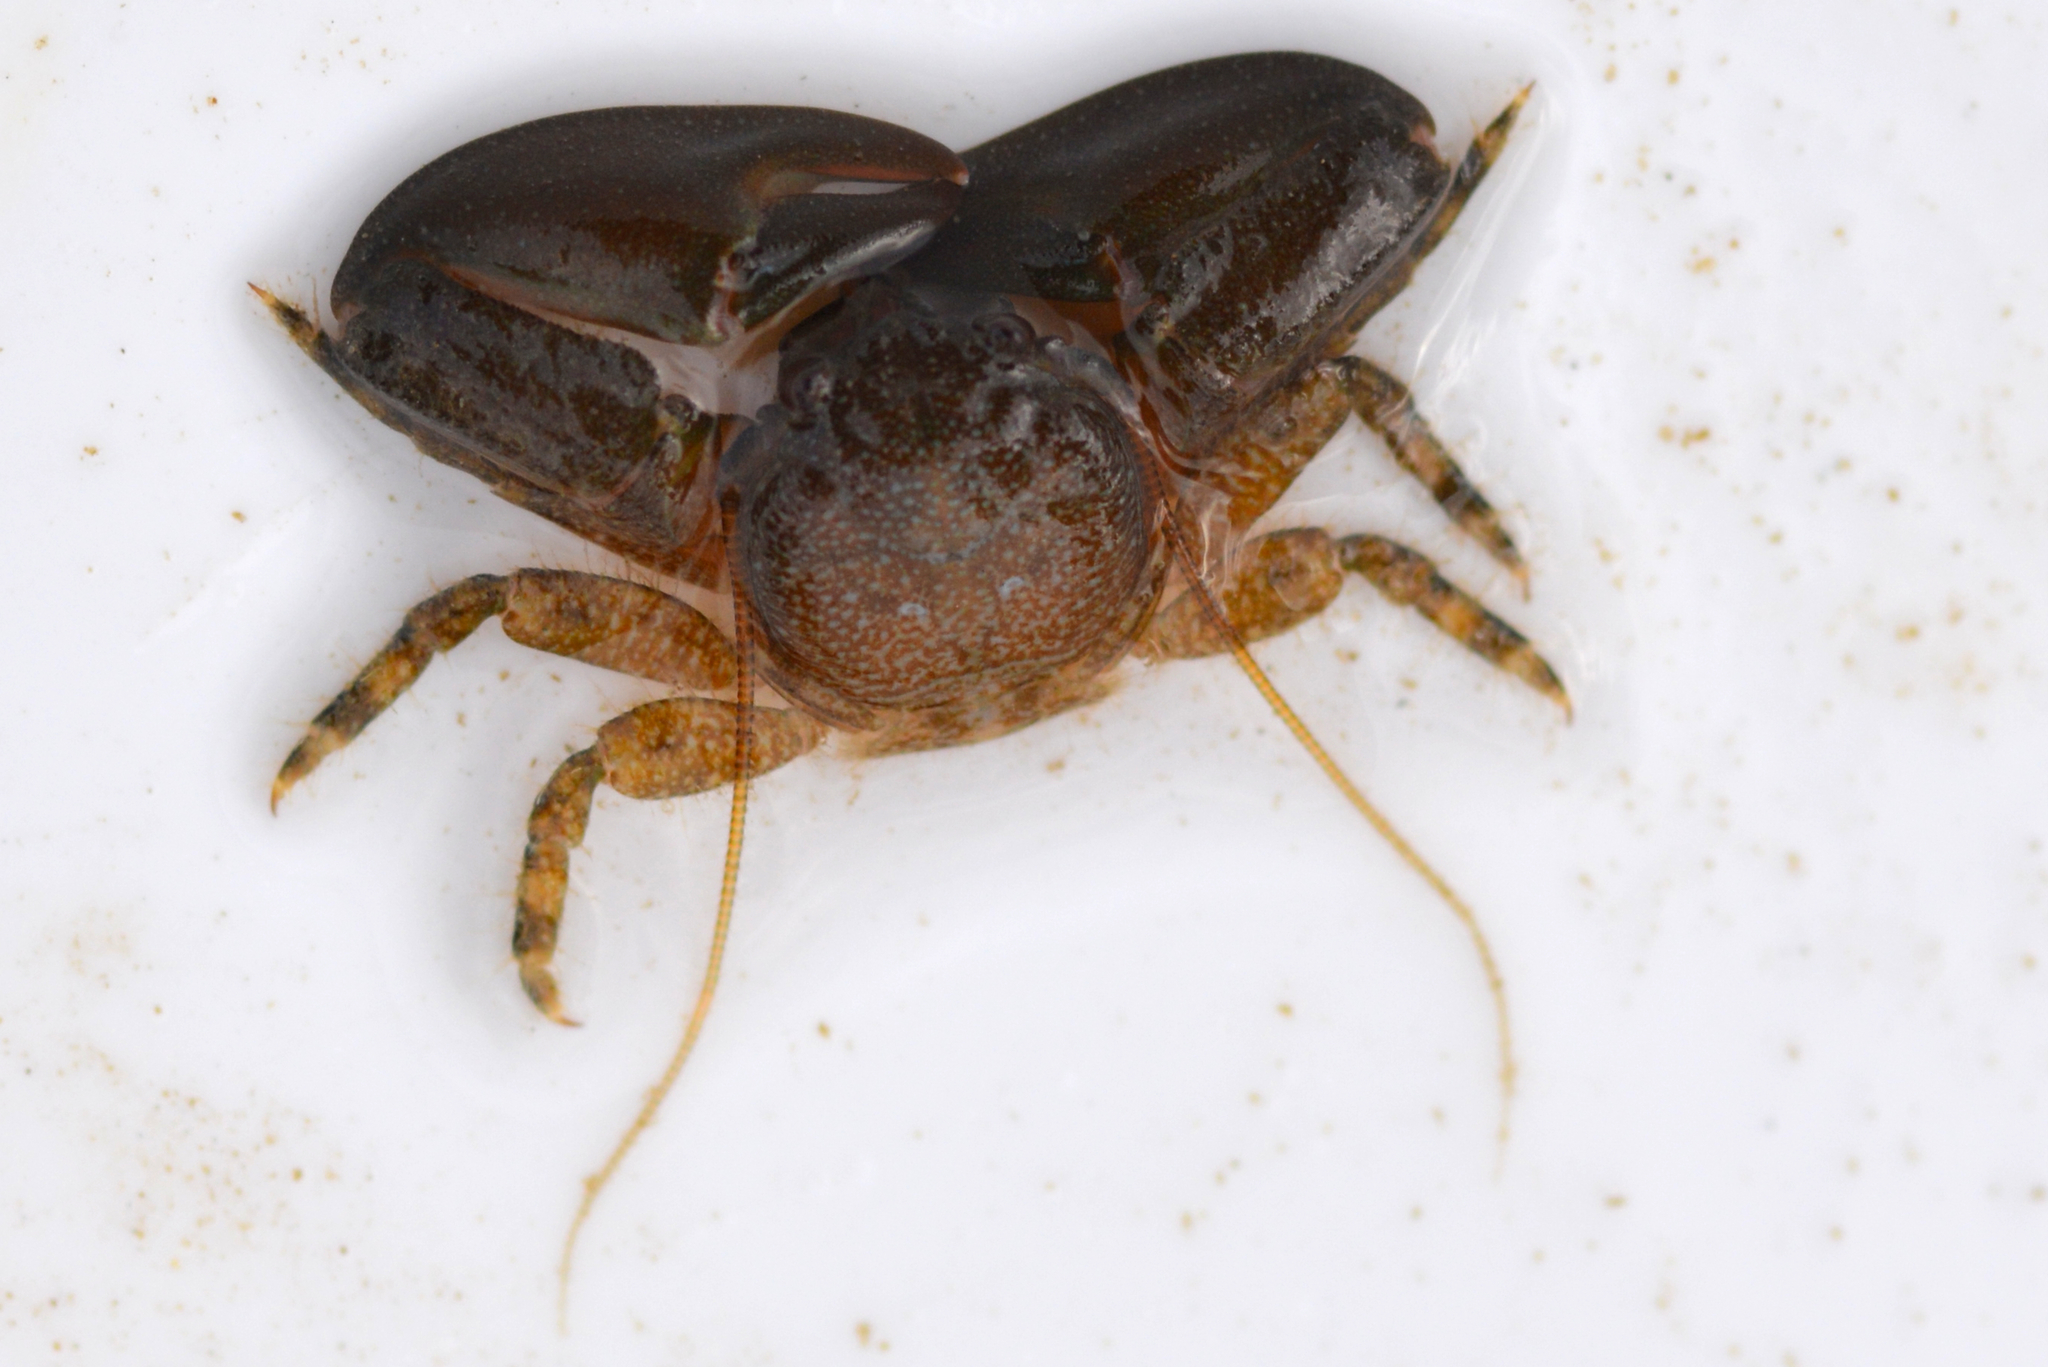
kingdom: Animalia
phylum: Arthropoda
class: Malacostraca
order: Decapoda
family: Porcellanidae
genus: Petrolisthes
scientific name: Petrolisthes eriomerus
